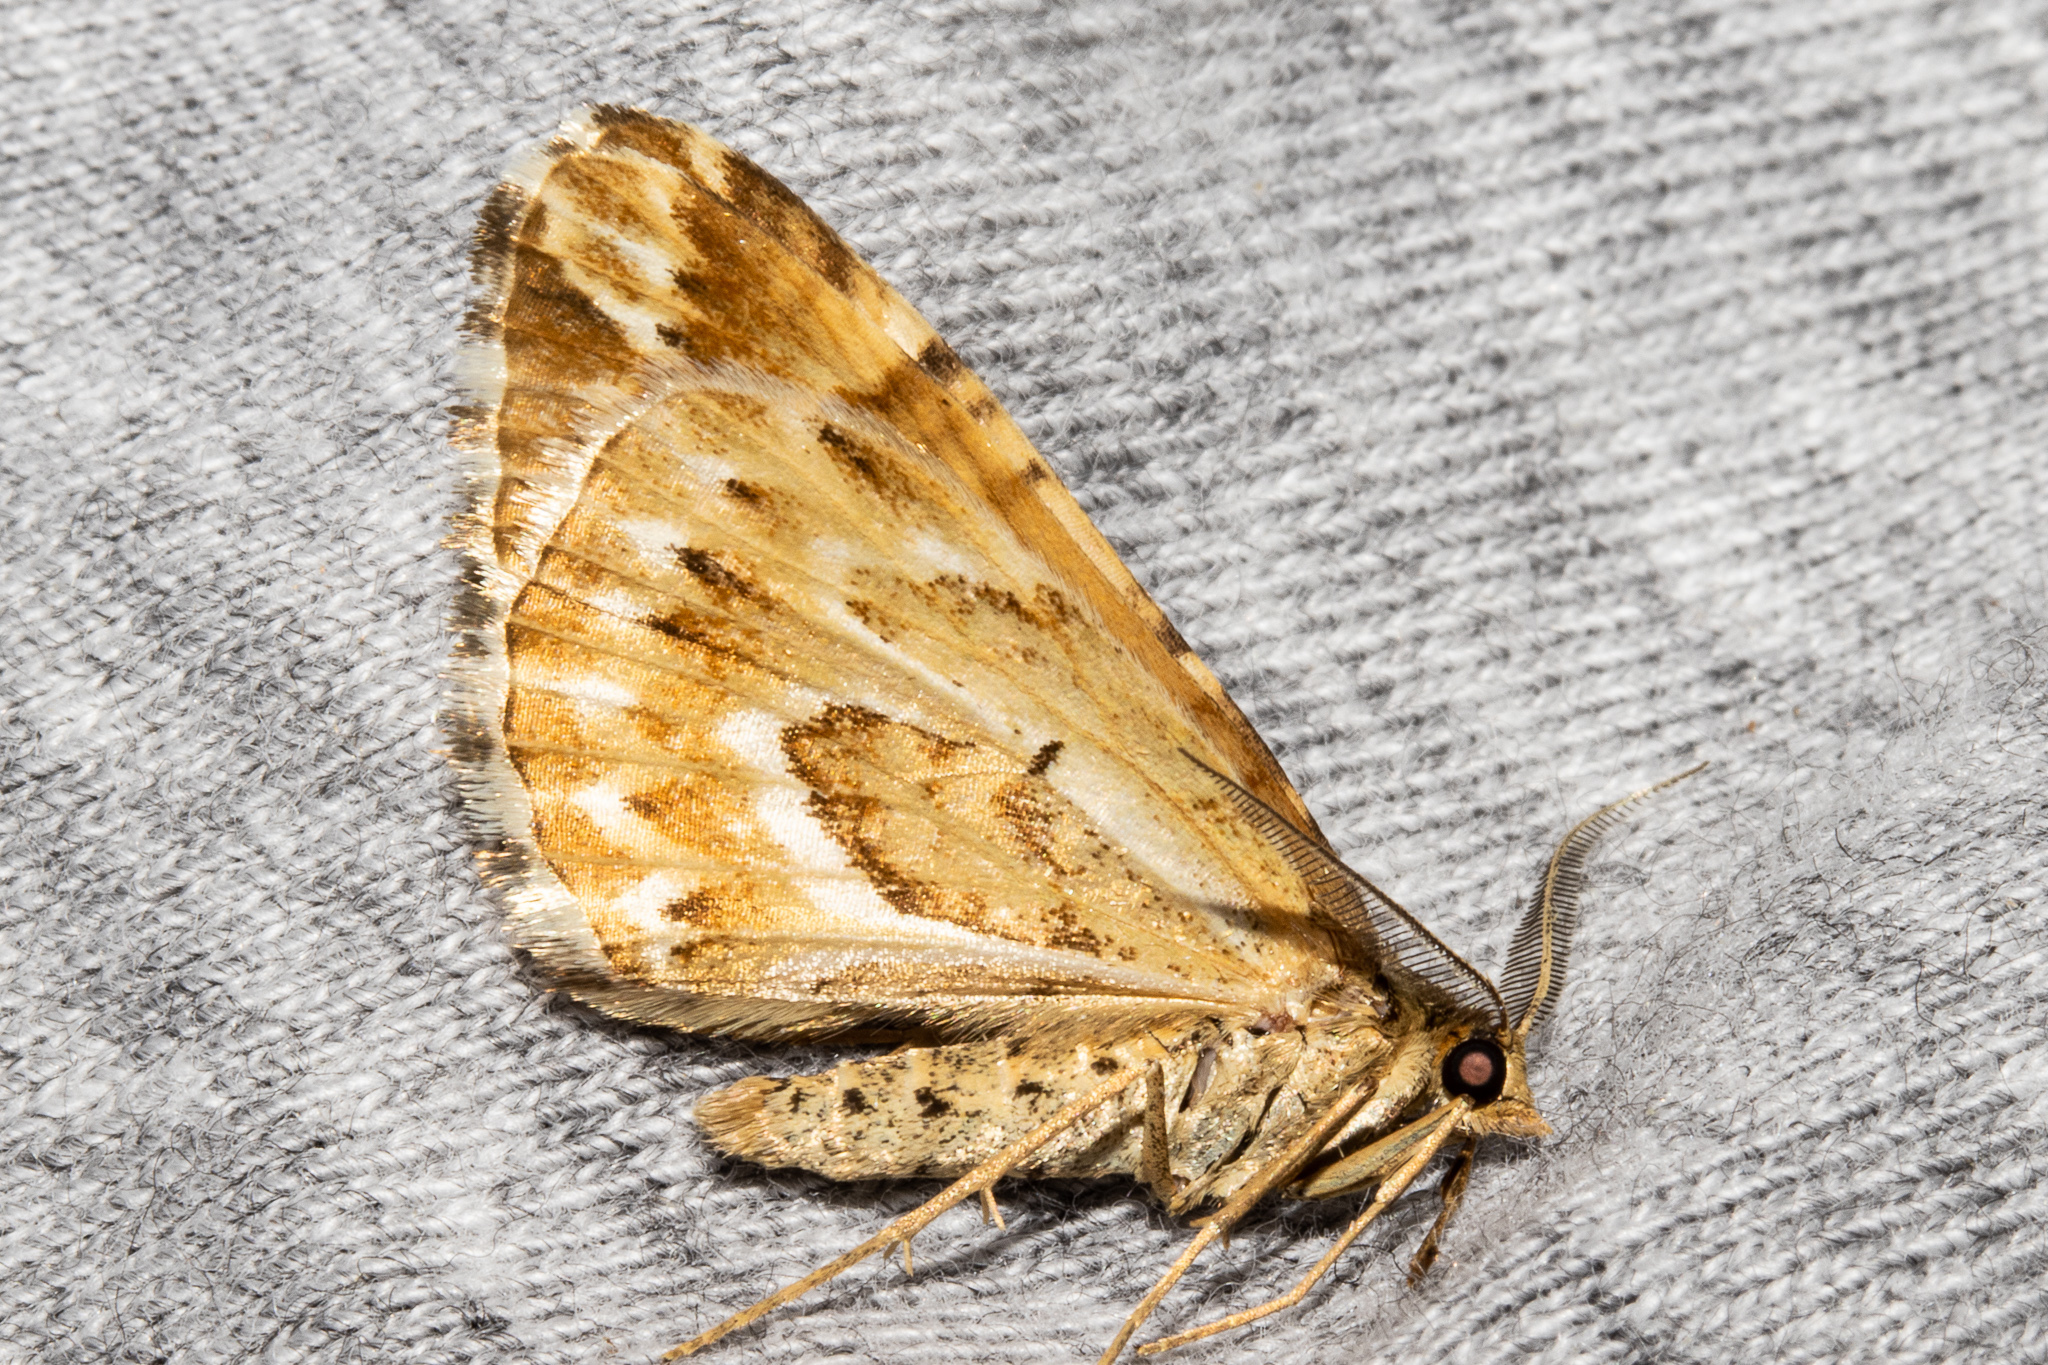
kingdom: Animalia
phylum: Arthropoda
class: Insecta
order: Lepidoptera
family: Geometridae
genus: Asaphodes
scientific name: Asaphodes clarata
